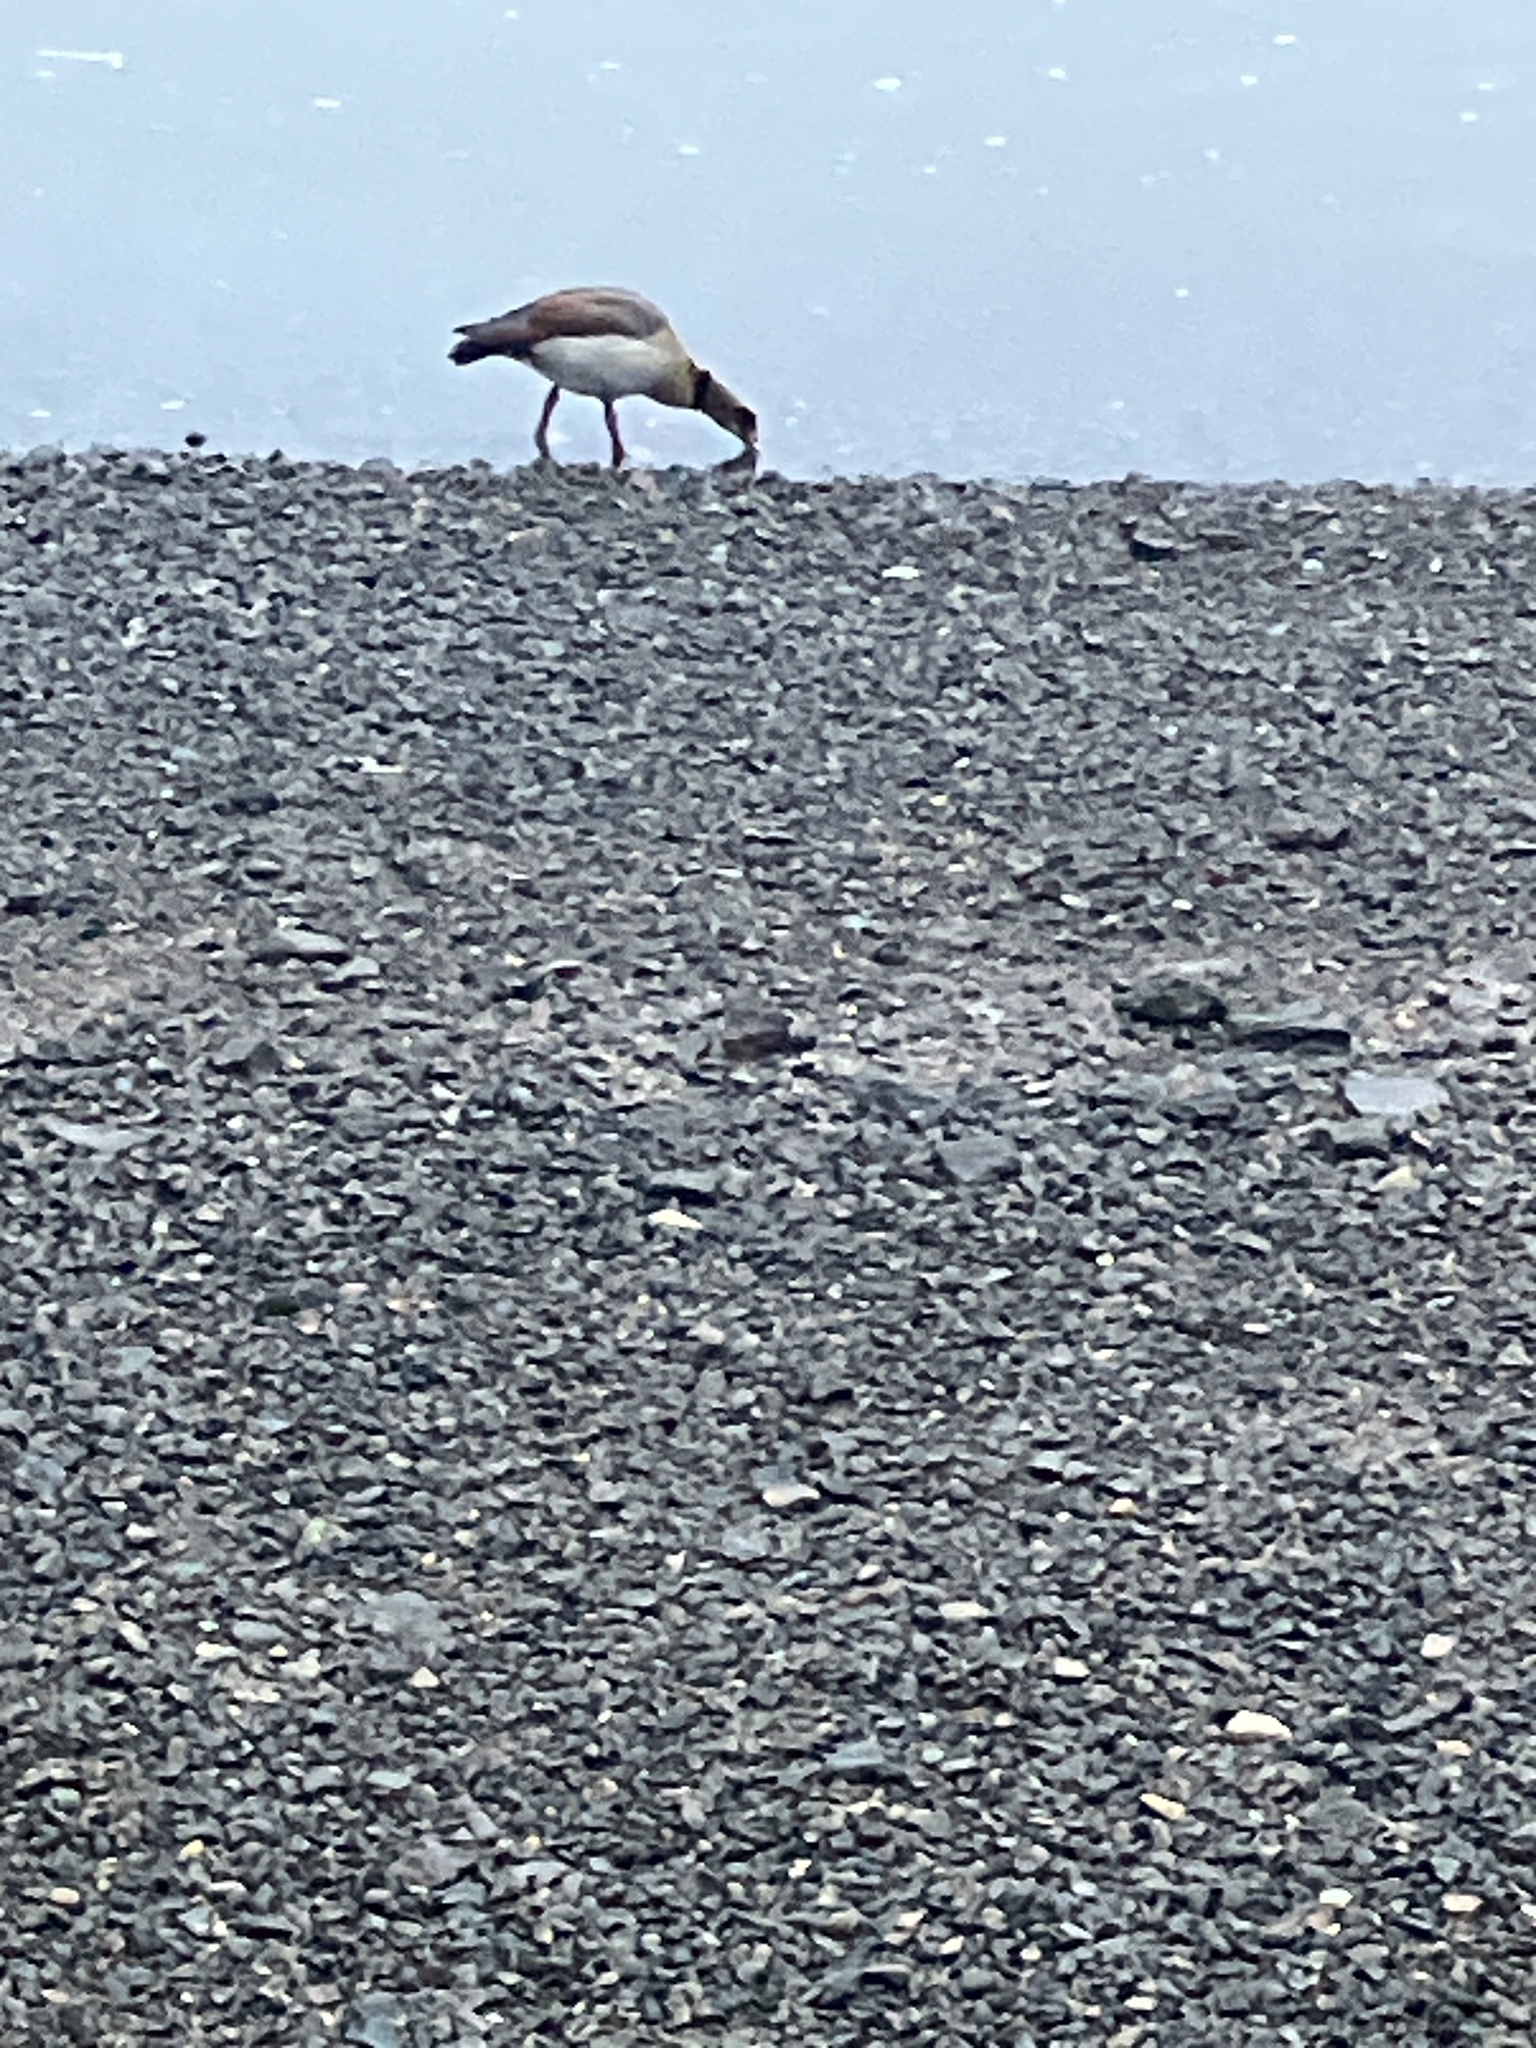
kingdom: Animalia
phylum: Chordata
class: Aves
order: Anseriformes
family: Anatidae
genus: Alopochen
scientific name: Alopochen aegyptiaca
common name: Egyptian goose
